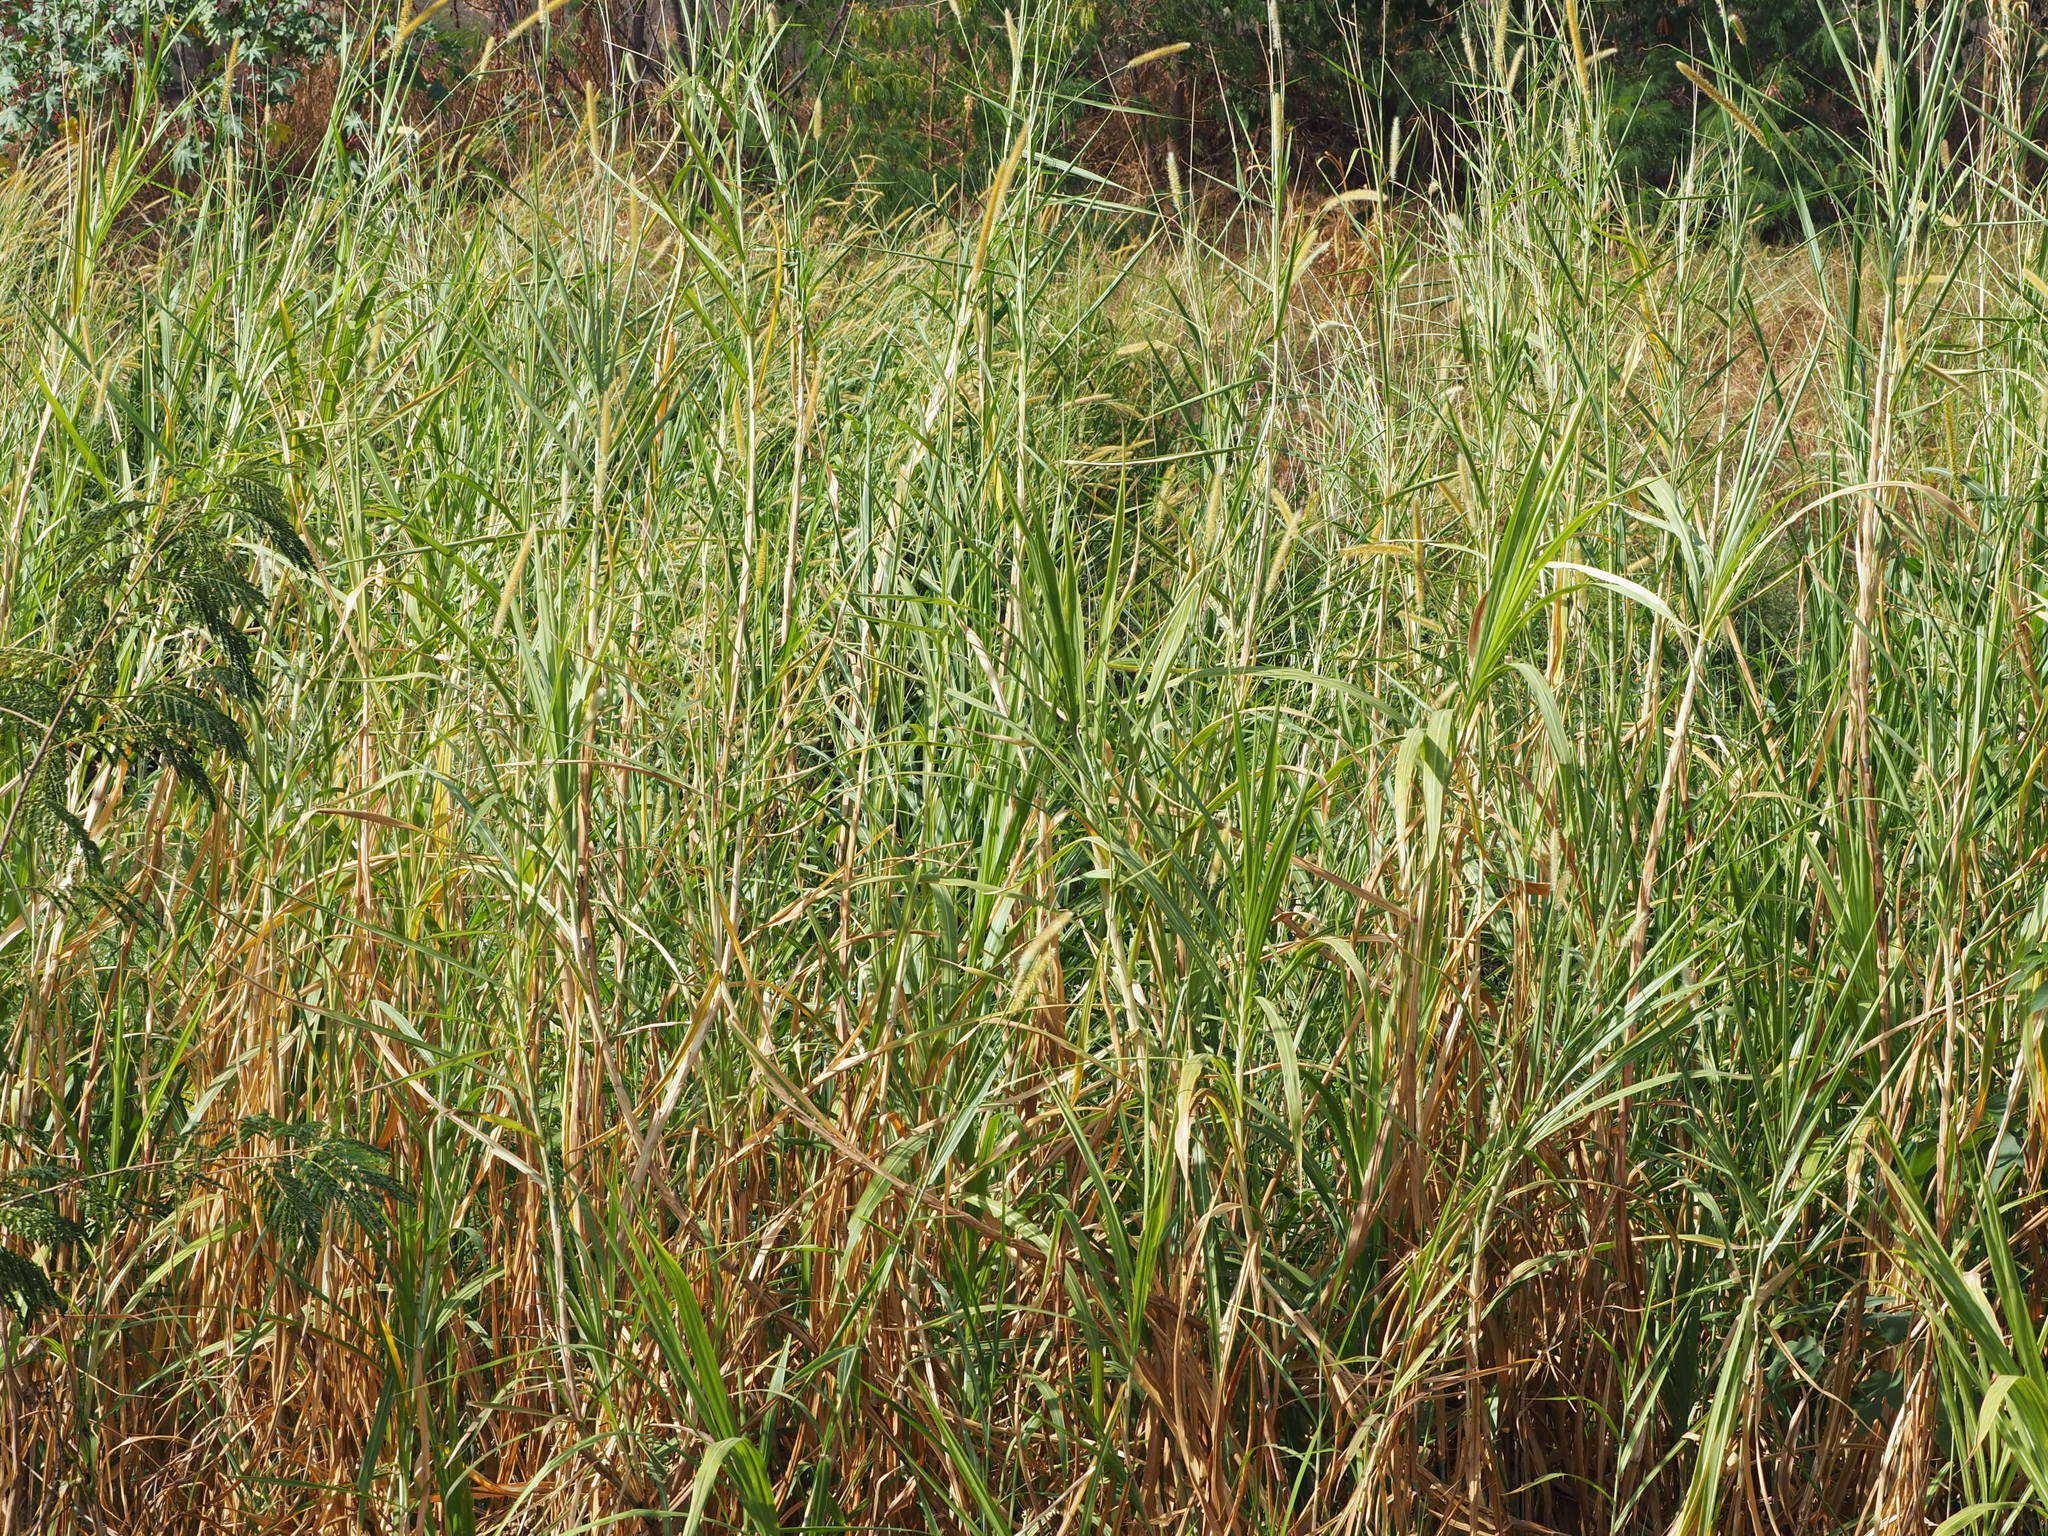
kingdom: Plantae
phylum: Tracheophyta
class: Liliopsida
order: Poales
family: Poaceae
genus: Cenchrus
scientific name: Cenchrus purpureus
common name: Elephant grass
